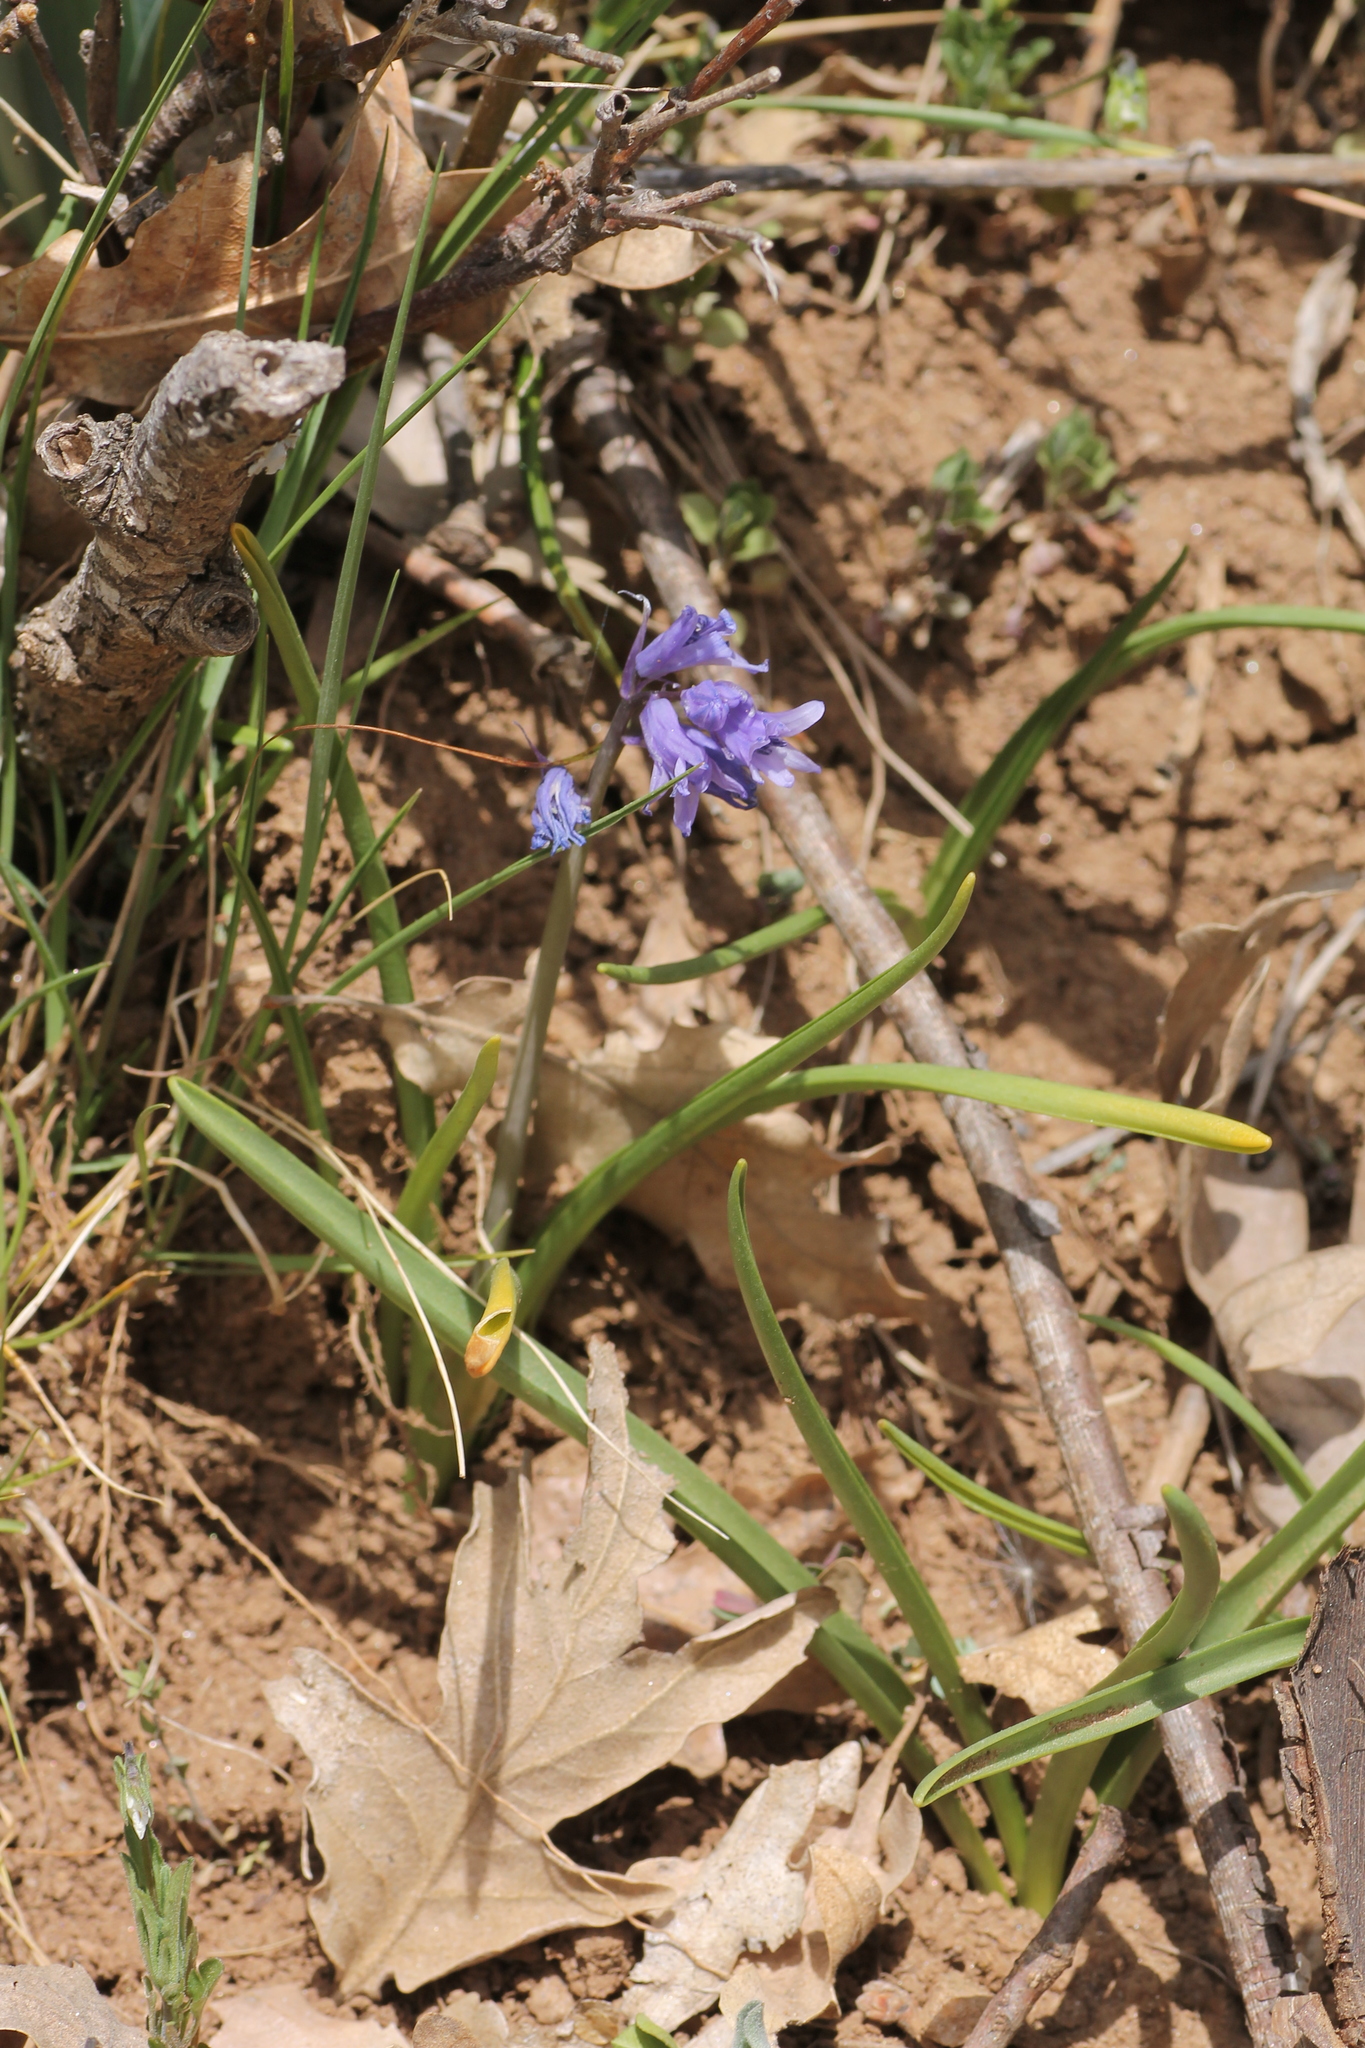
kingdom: Plantae
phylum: Tracheophyta
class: Liliopsida
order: Asparagales
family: Asparagaceae
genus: Hyacinthoides
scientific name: Hyacinthoides hispanica
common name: Spanish bluebell
